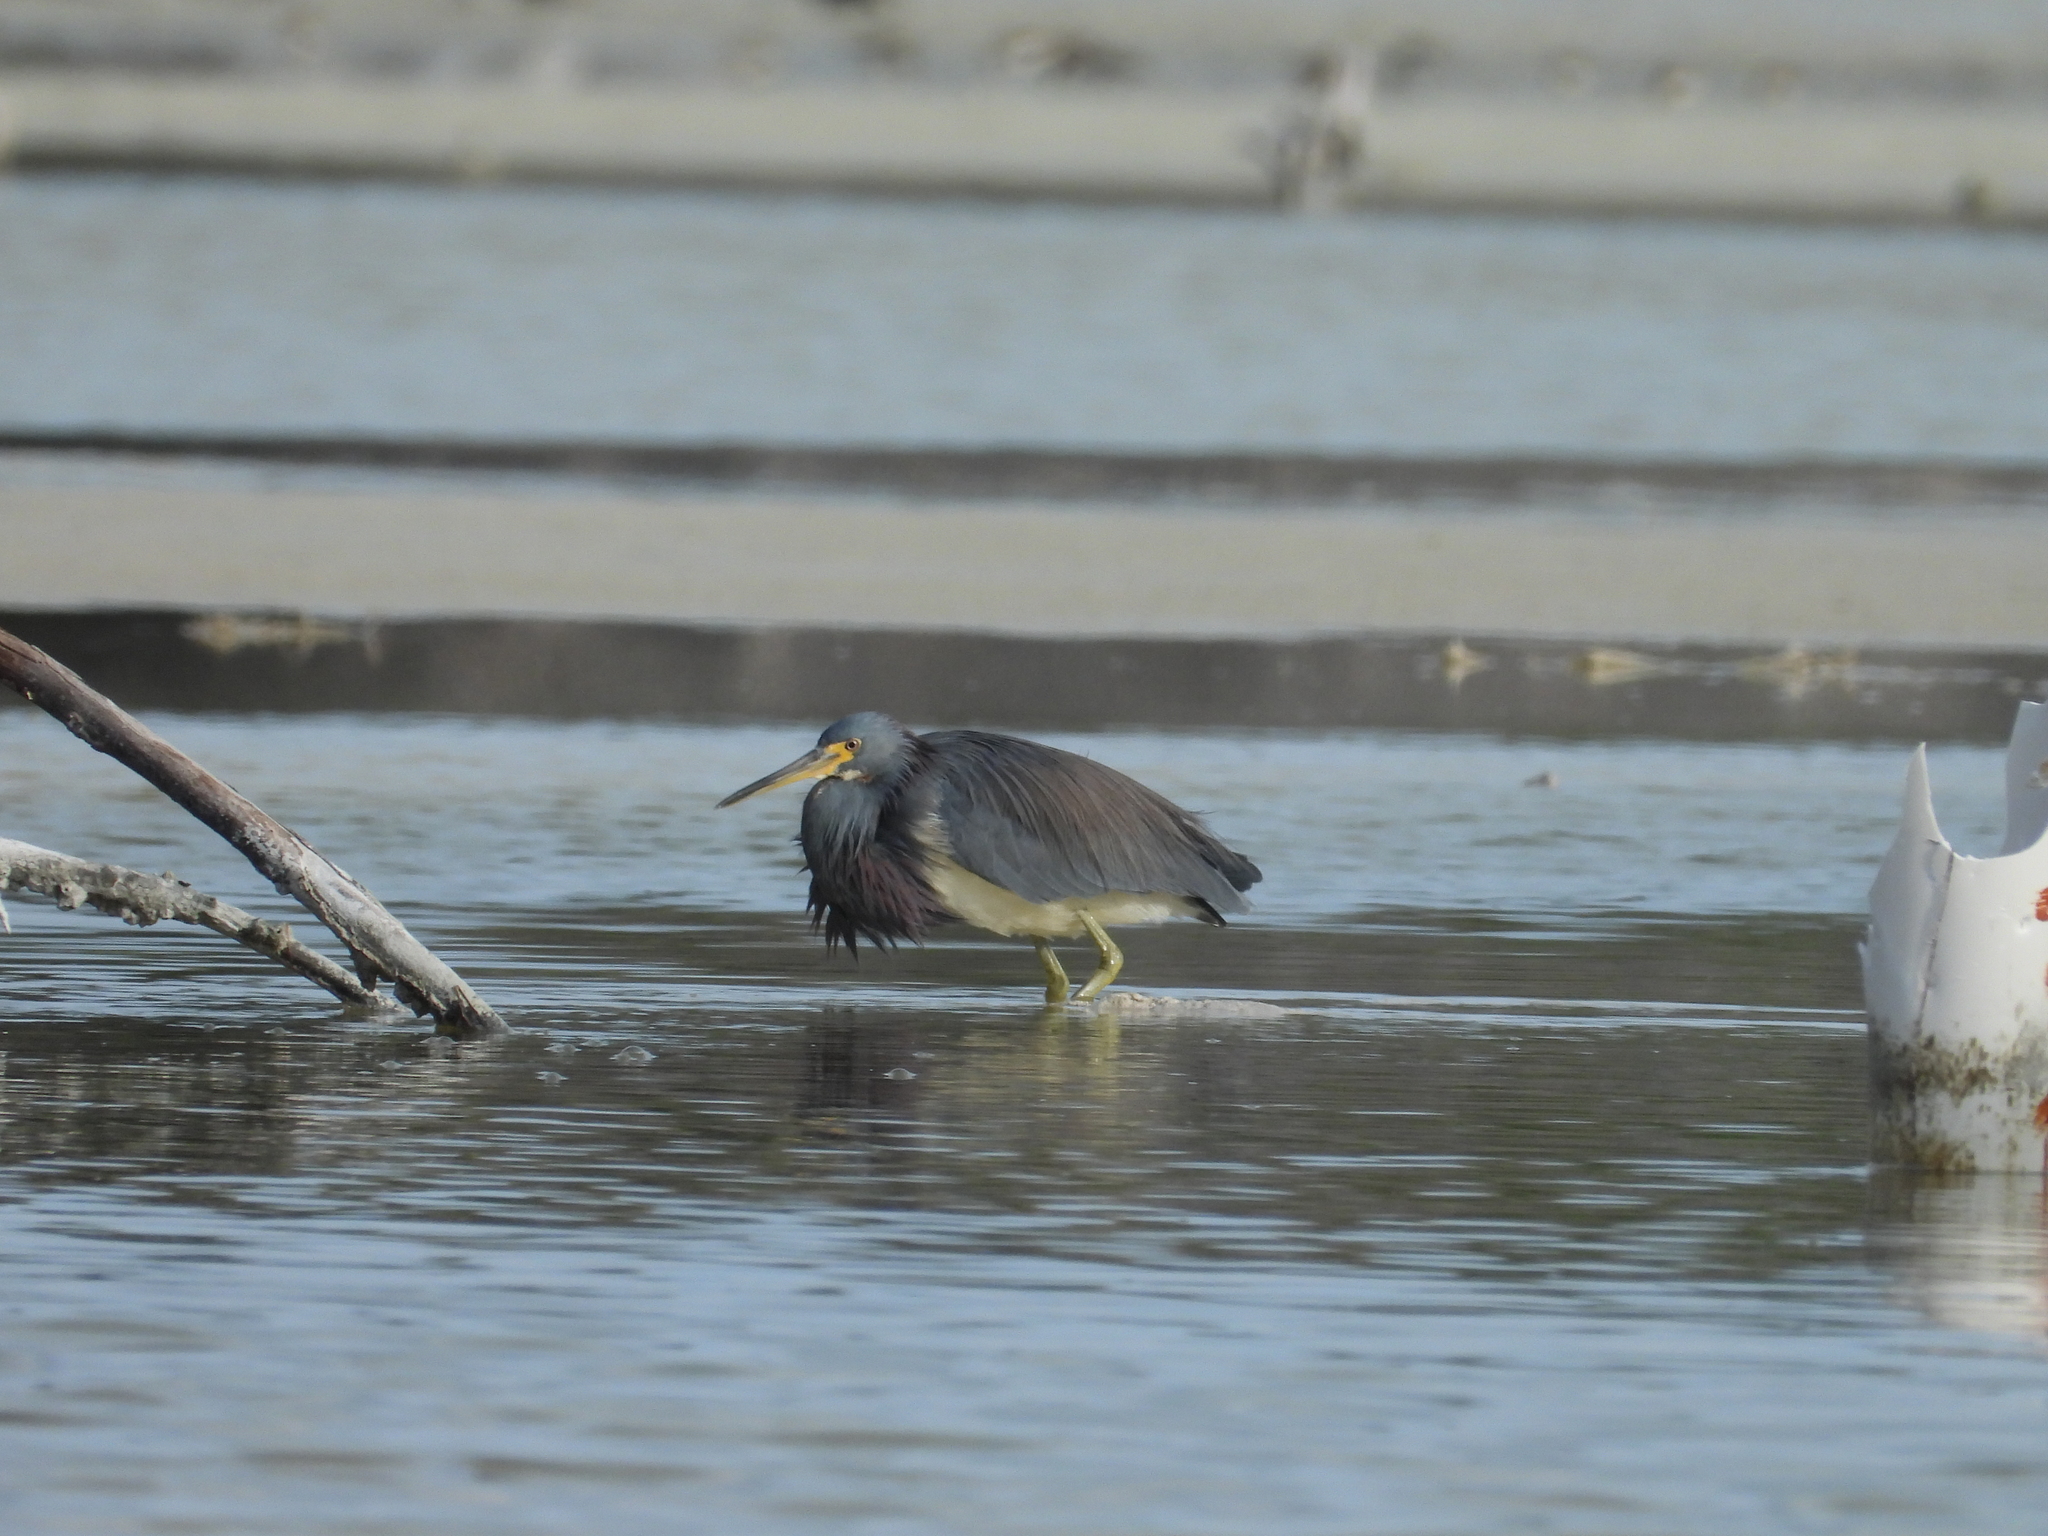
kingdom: Animalia
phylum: Chordata
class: Aves
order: Pelecaniformes
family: Ardeidae
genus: Egretta
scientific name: Egretta tricolor
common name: Tricolored heron
